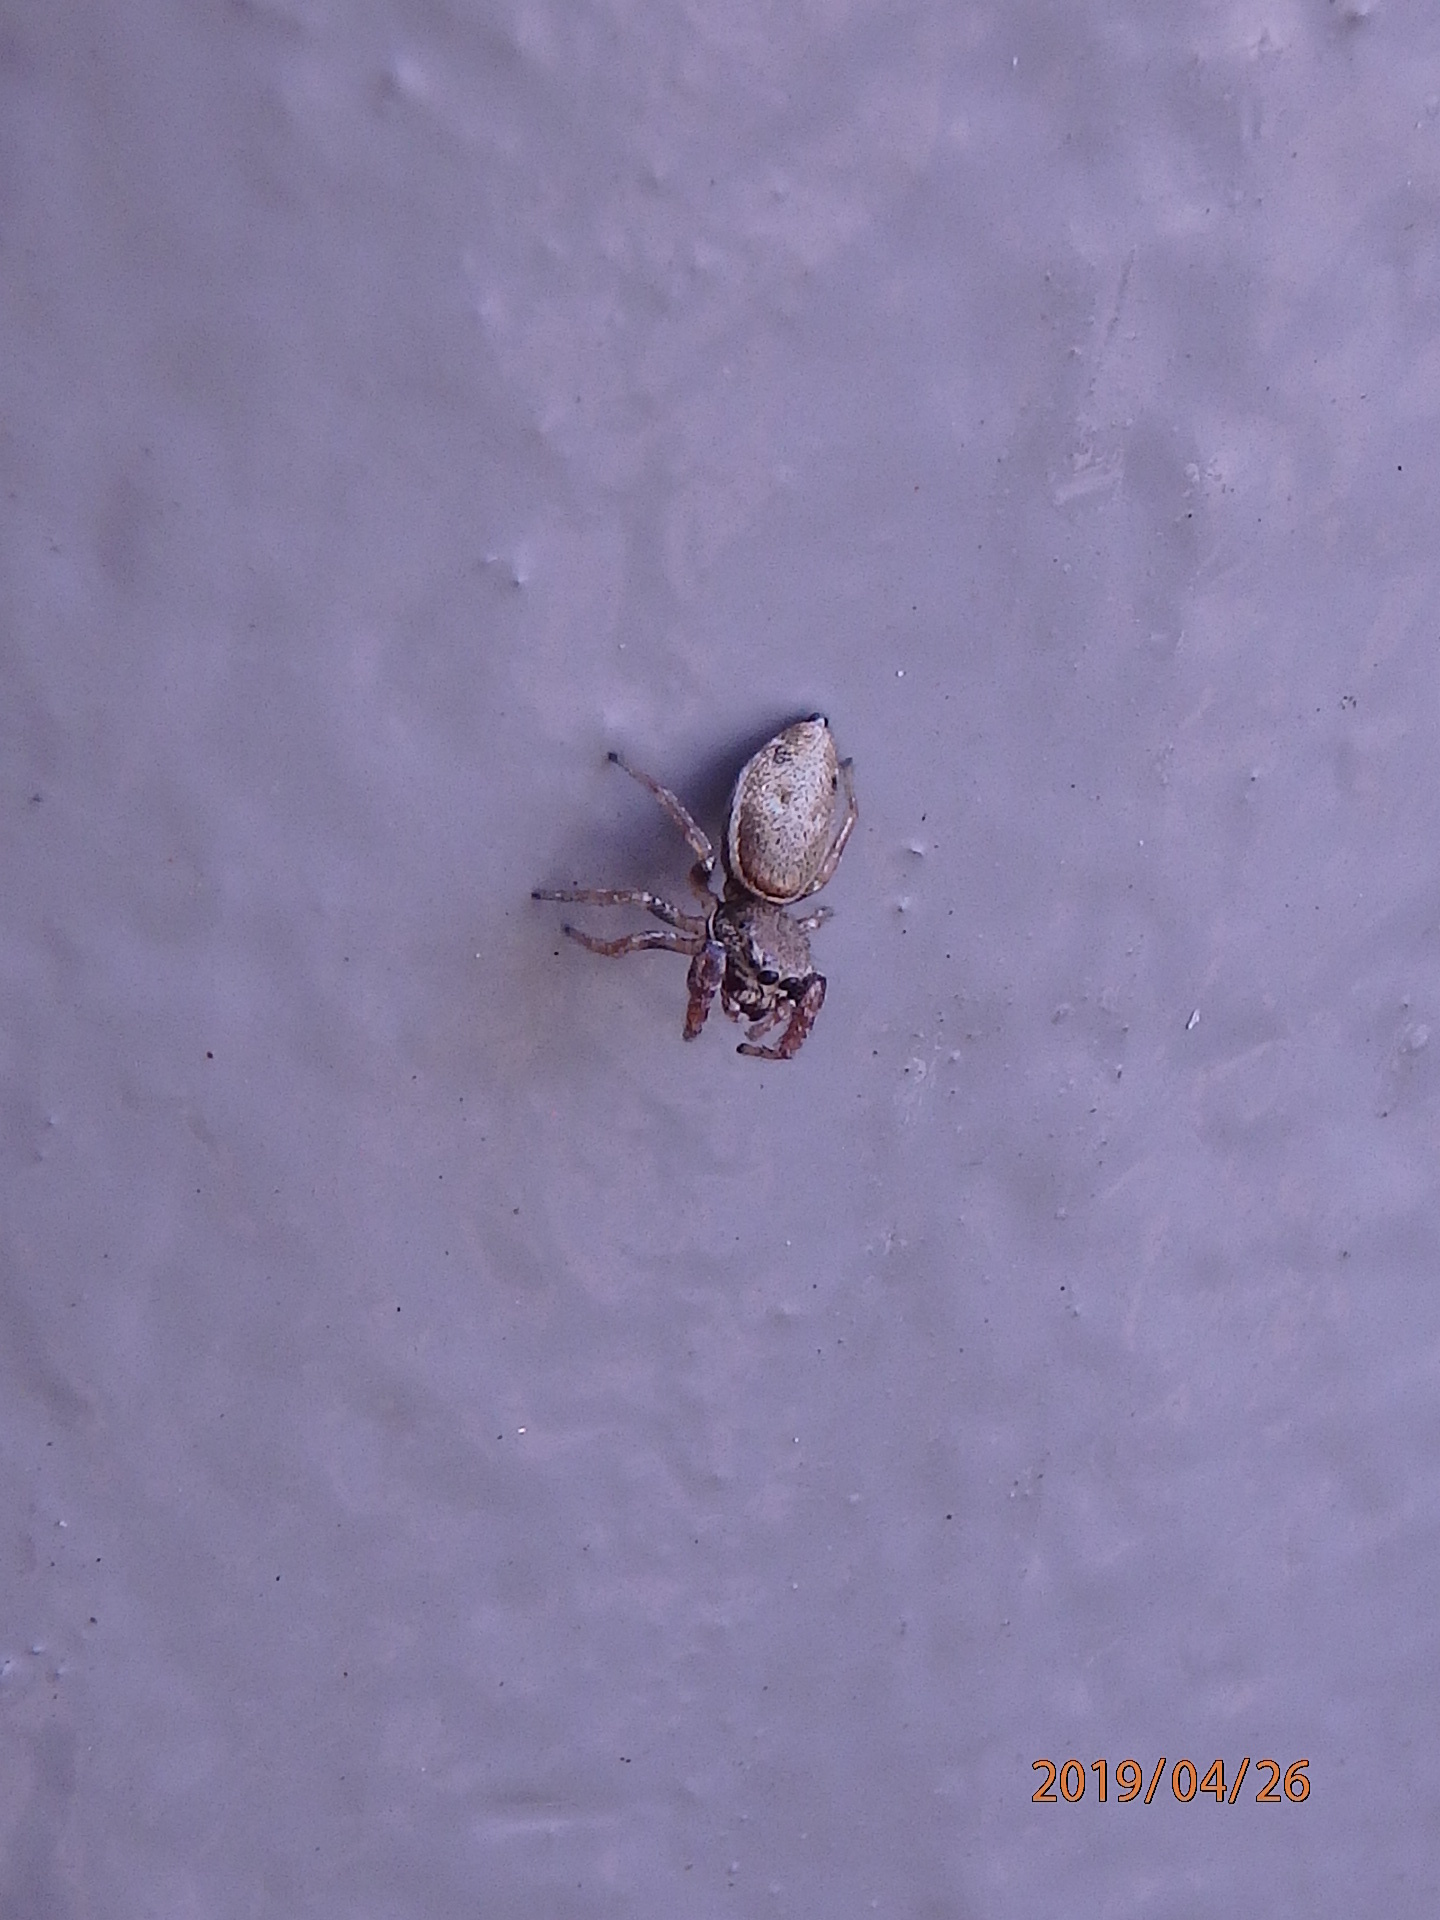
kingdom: Animalia
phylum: Arthropoda
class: Arachnida
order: Araneae
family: Salticidae
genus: Sassacus
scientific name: Sassacus vitis
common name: Jumping spiders
